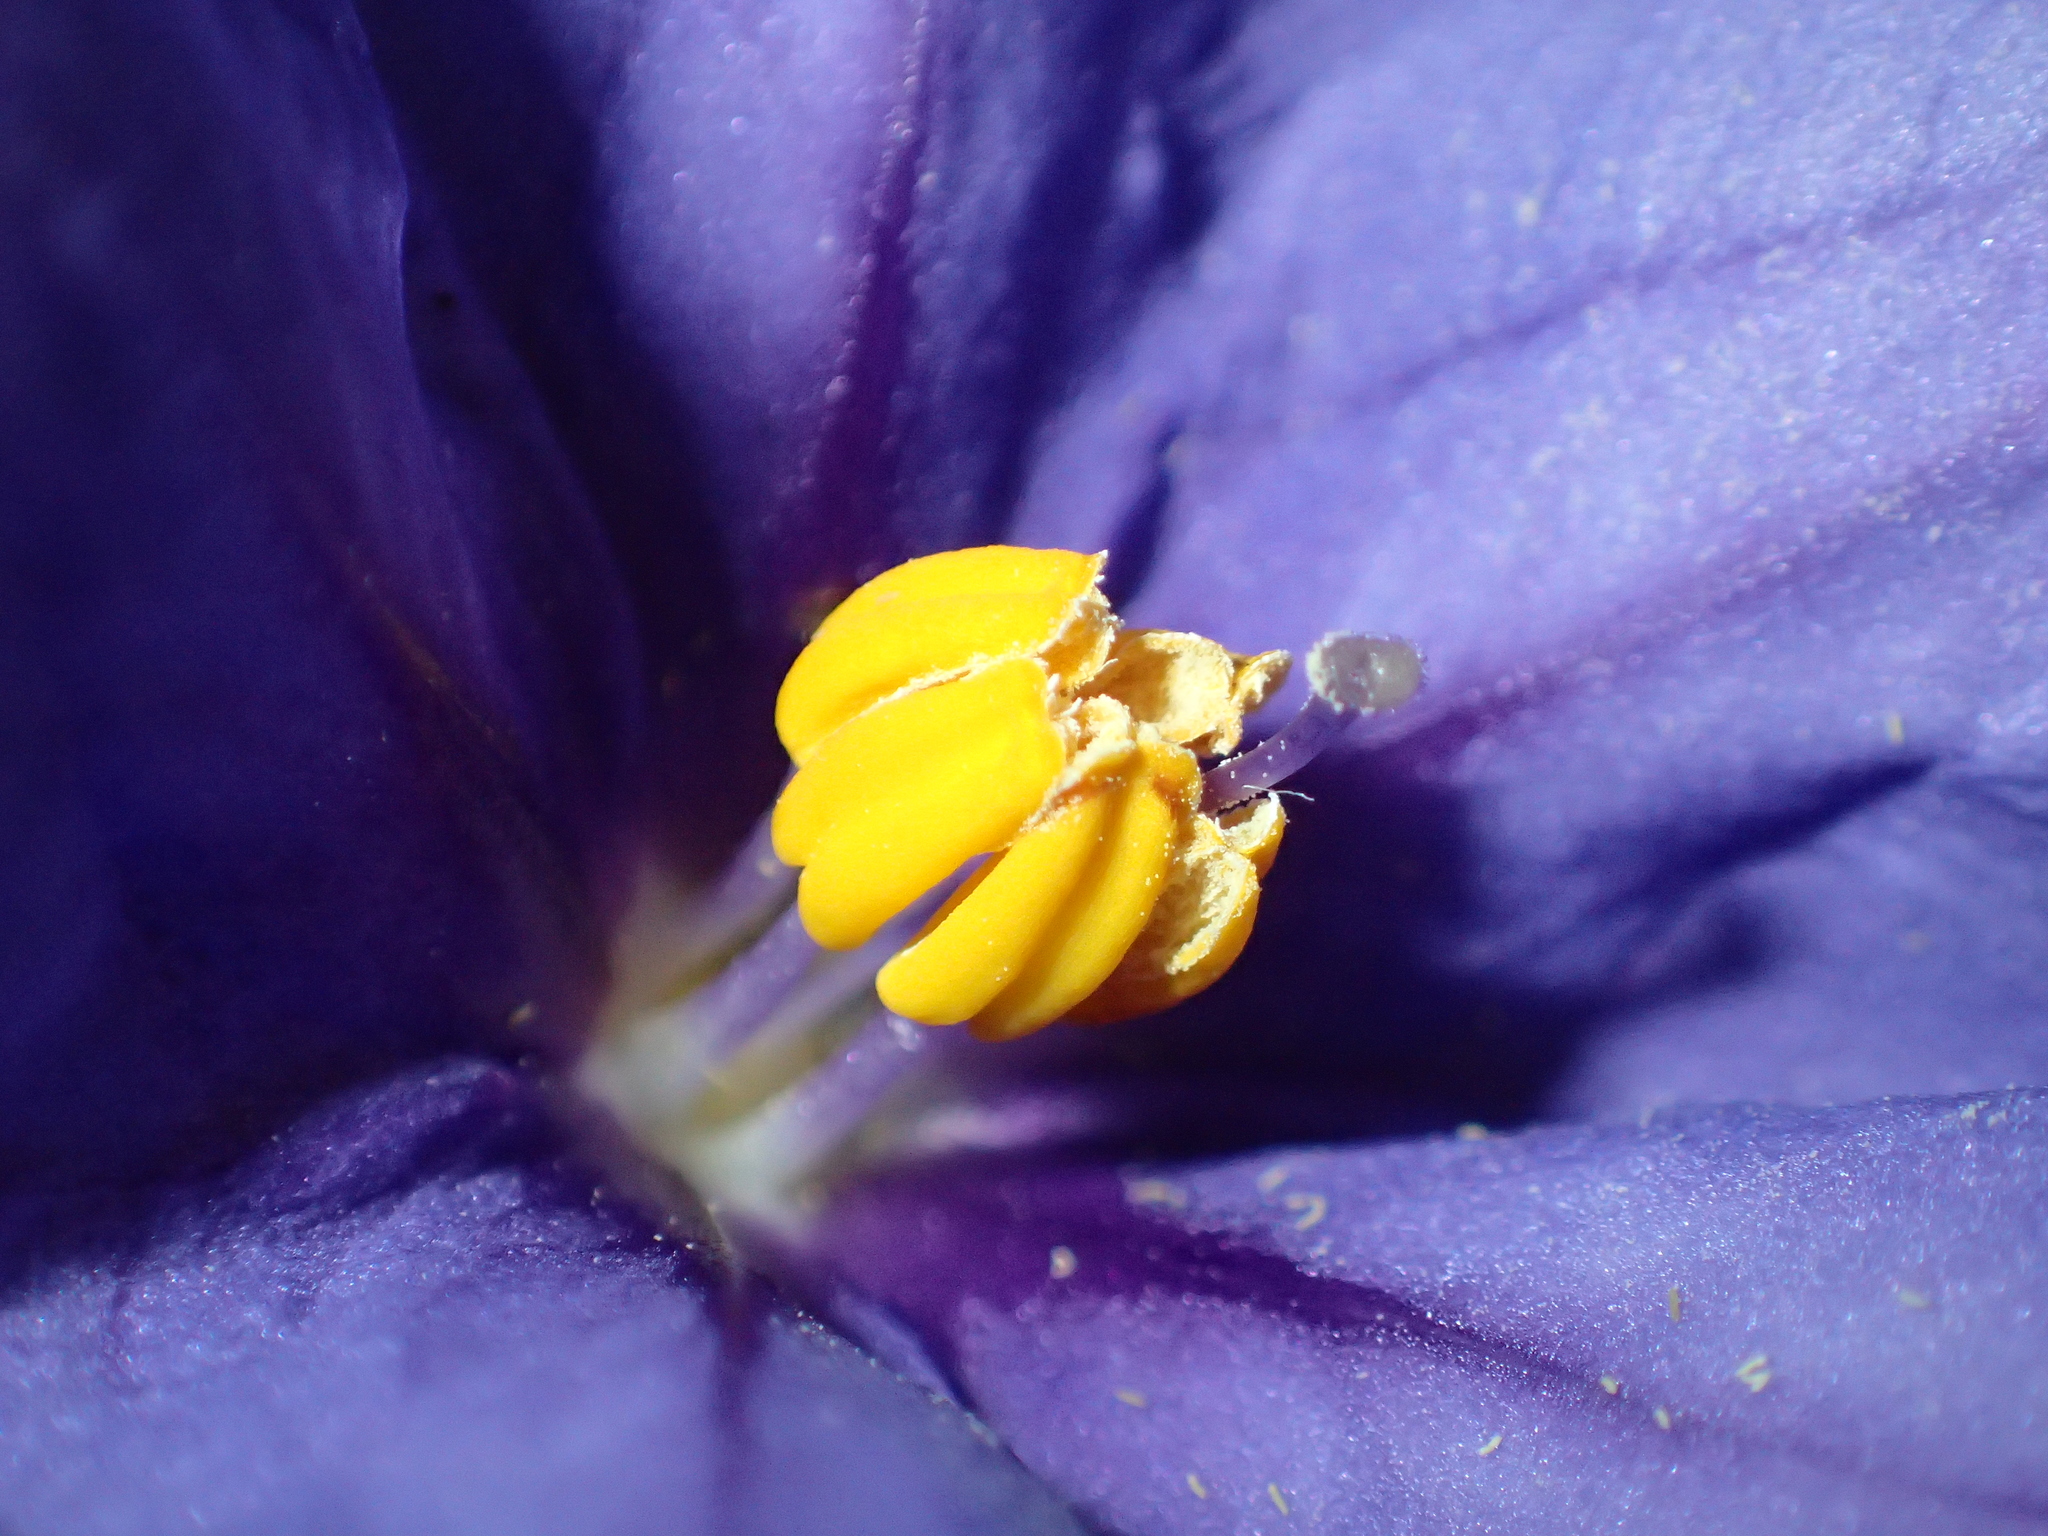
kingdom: Plantae
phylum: Tracheophyta
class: Magnoliopsida
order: Solanales
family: Solanaceae
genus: Solanum
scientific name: Solanum laciniatum
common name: Kangaroo-apple
